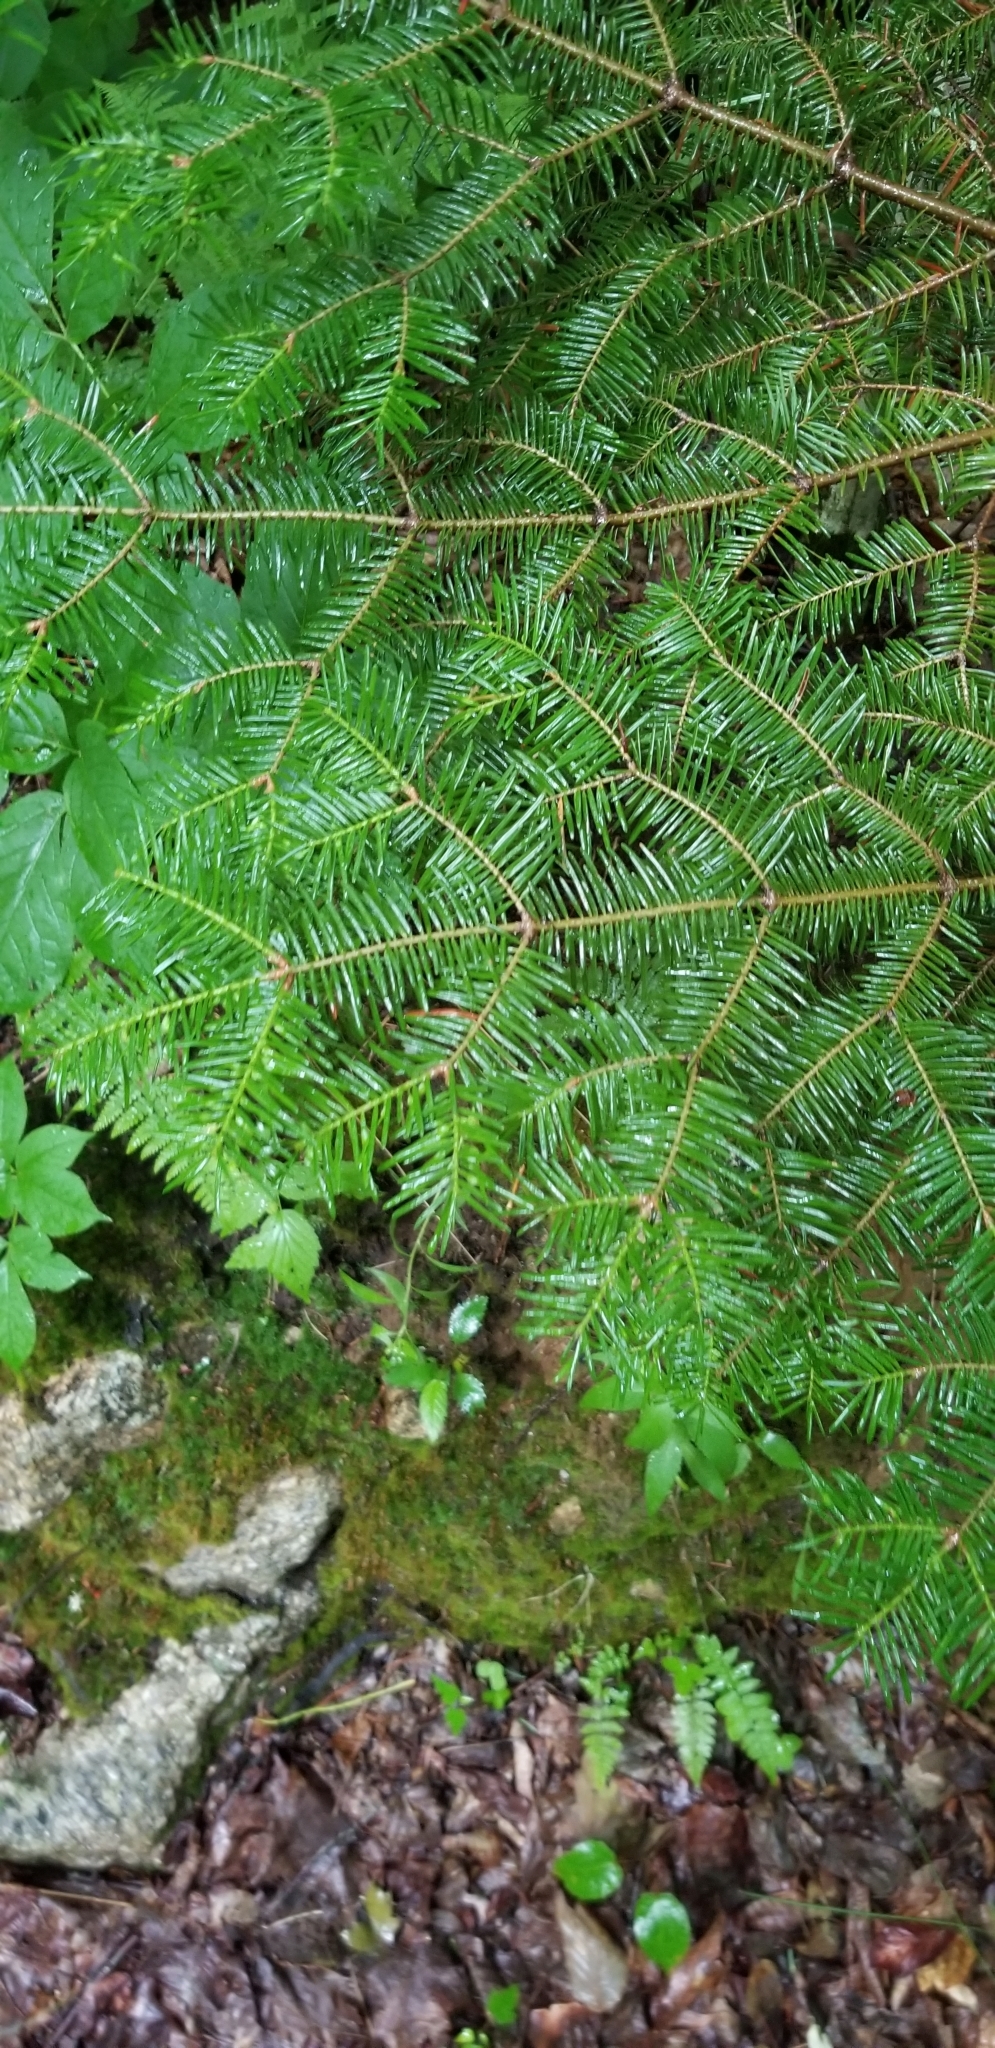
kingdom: Plantae
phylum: Tracheophyta
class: Pinopsida
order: Pinales
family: Pinaceae
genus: Abies
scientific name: Abies balsamea
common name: Balsam fir
